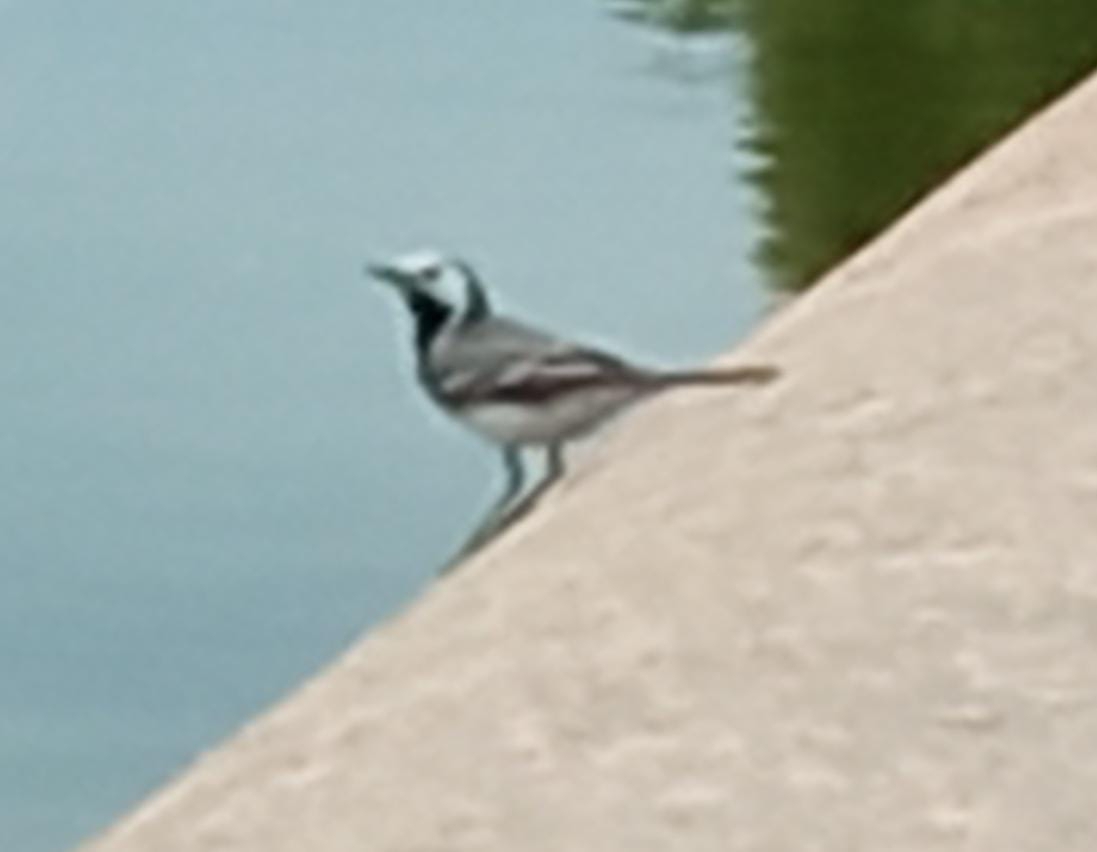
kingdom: Animalia
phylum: Chordata
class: Aves
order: Passeriformes
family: Motacillidae
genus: Motacilla
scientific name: Motacilla alba
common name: White wagtail
